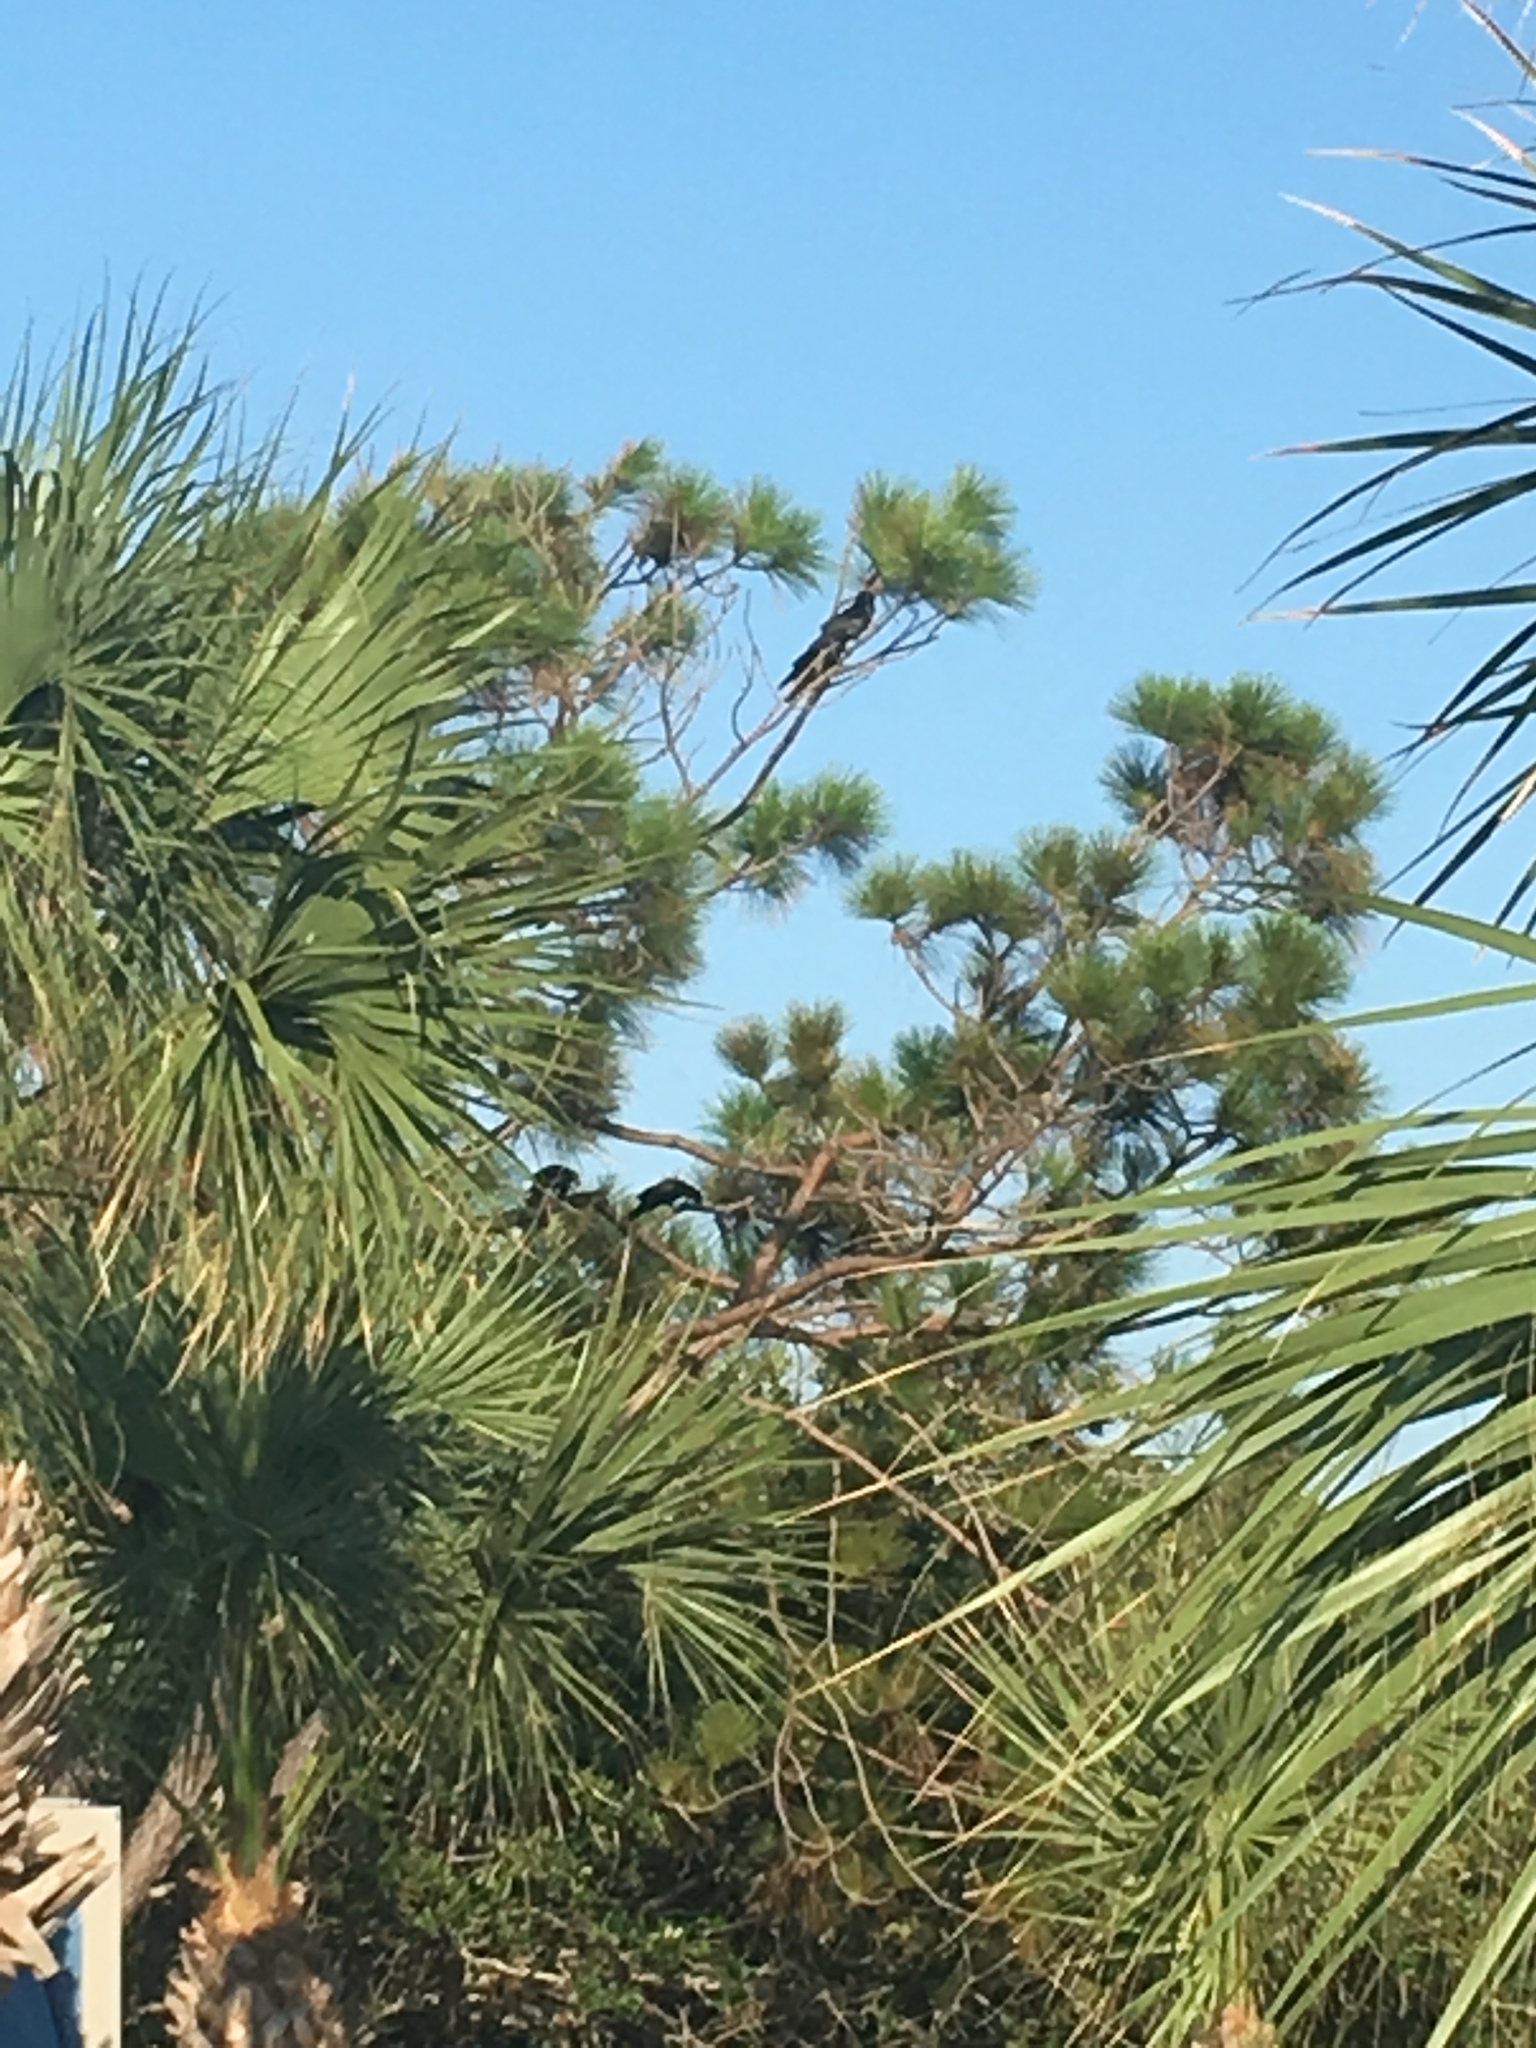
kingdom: Animalia
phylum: Chordata
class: Aves
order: Passeriformes
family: Corvidae
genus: Corvus
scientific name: Corvus ossifragus
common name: Fish crow
